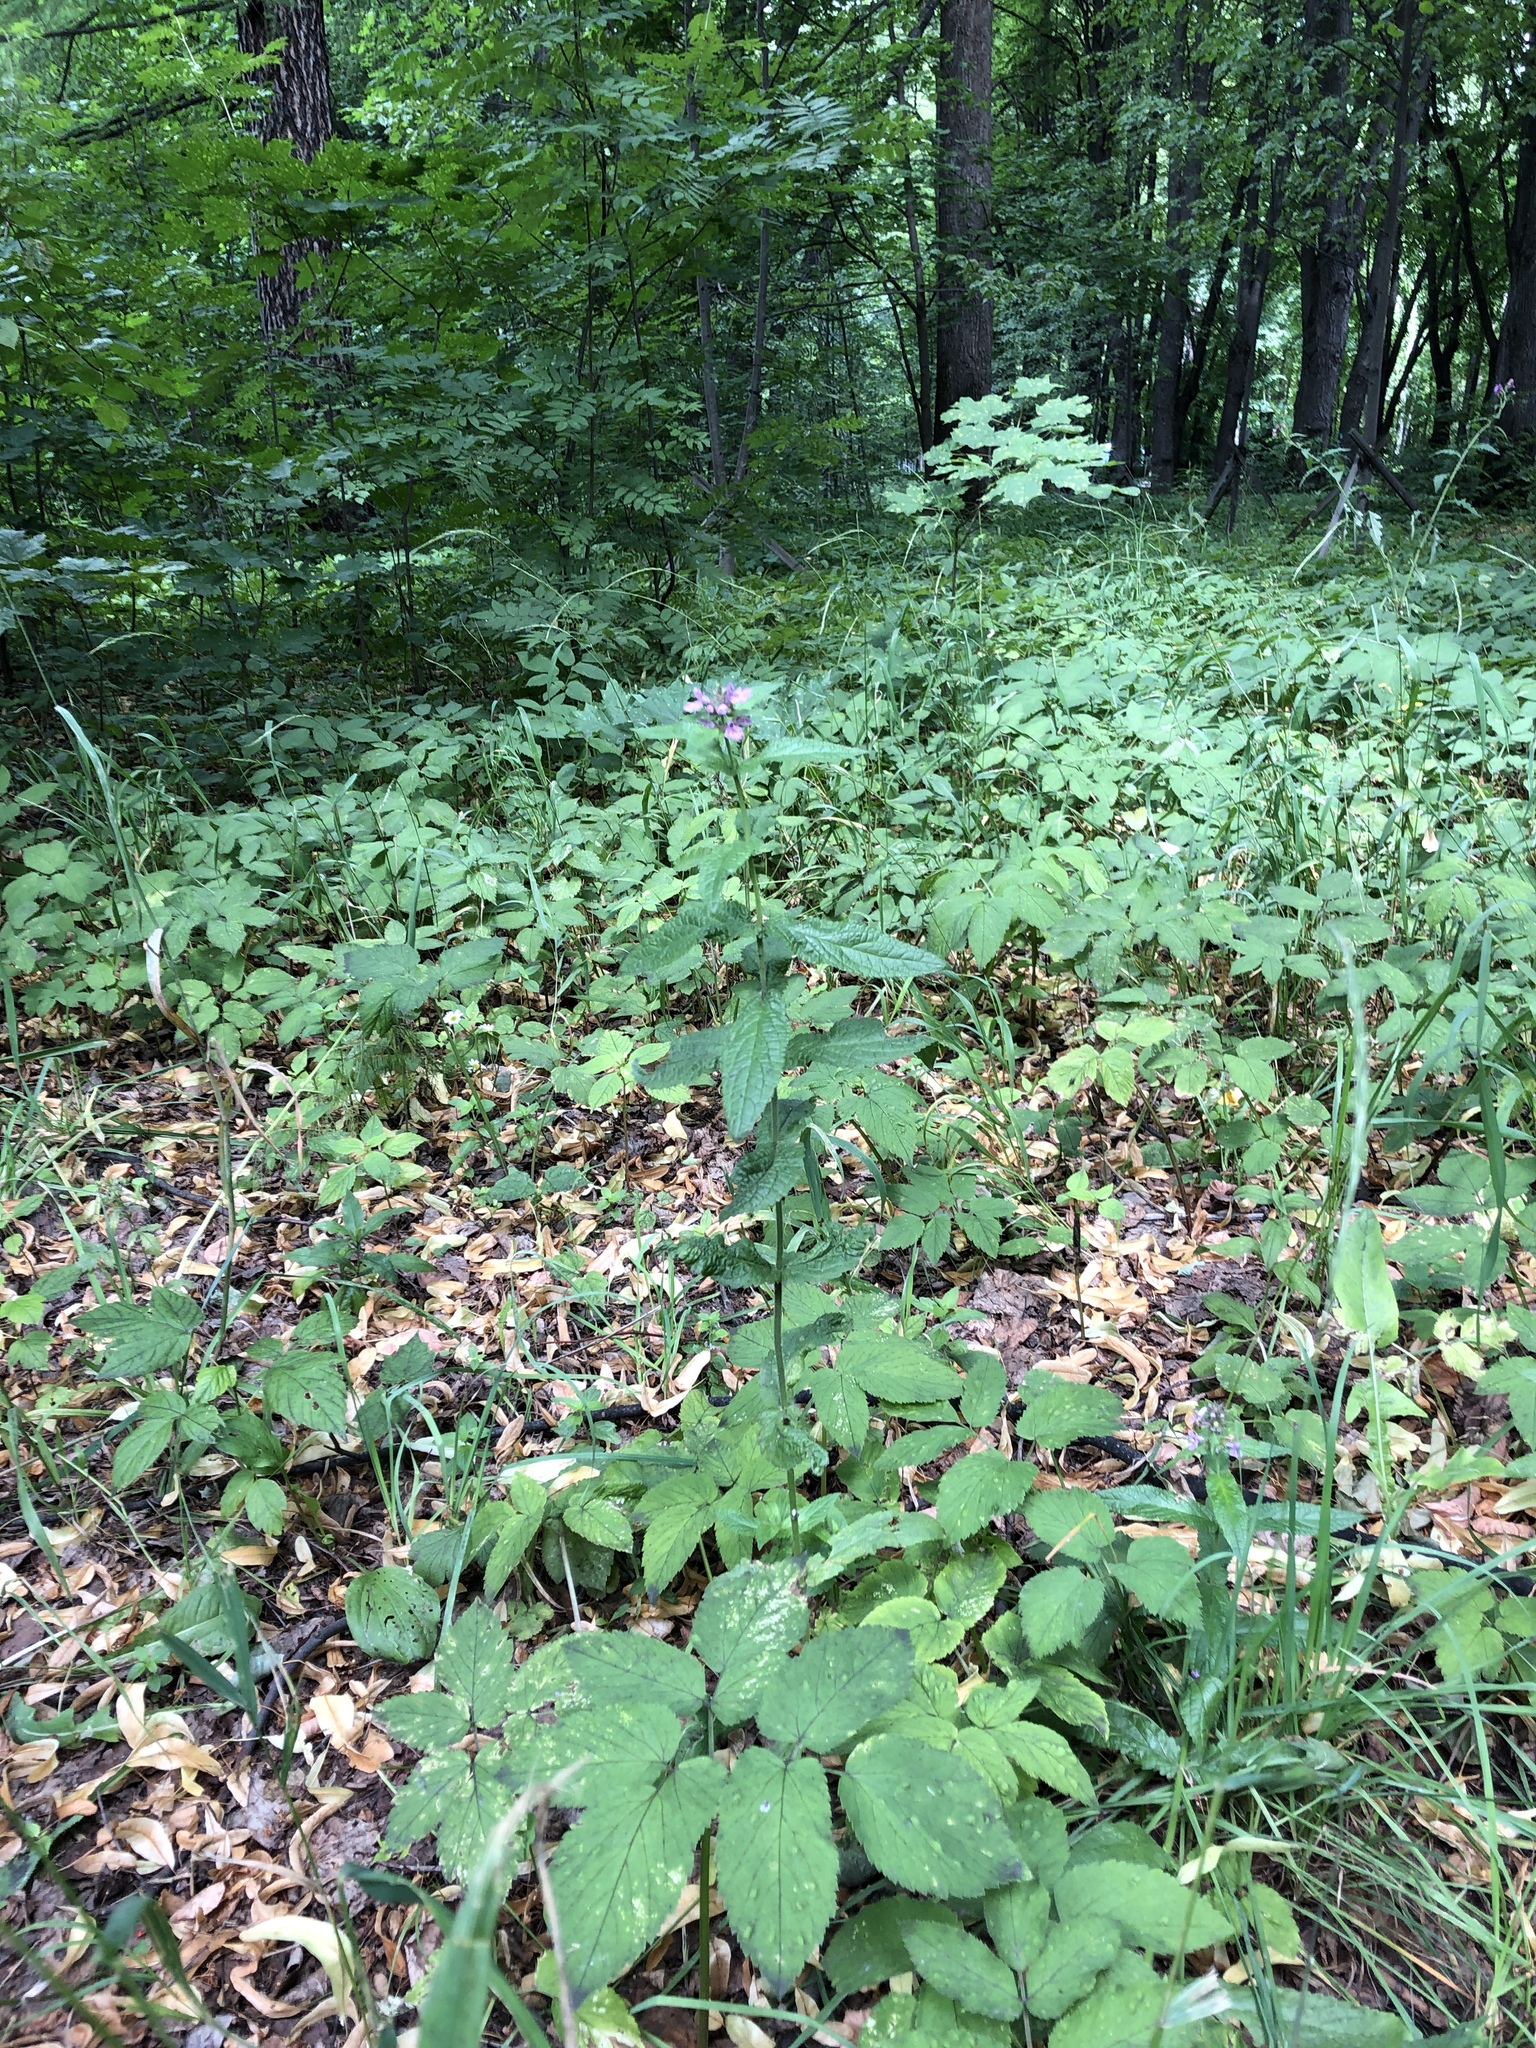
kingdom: Plantae
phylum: Tracheophyta
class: Magnoliopsida
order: Lamiales
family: Lamiaceae
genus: Stachys
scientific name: Stachys palustris
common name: Marsh woundwort
